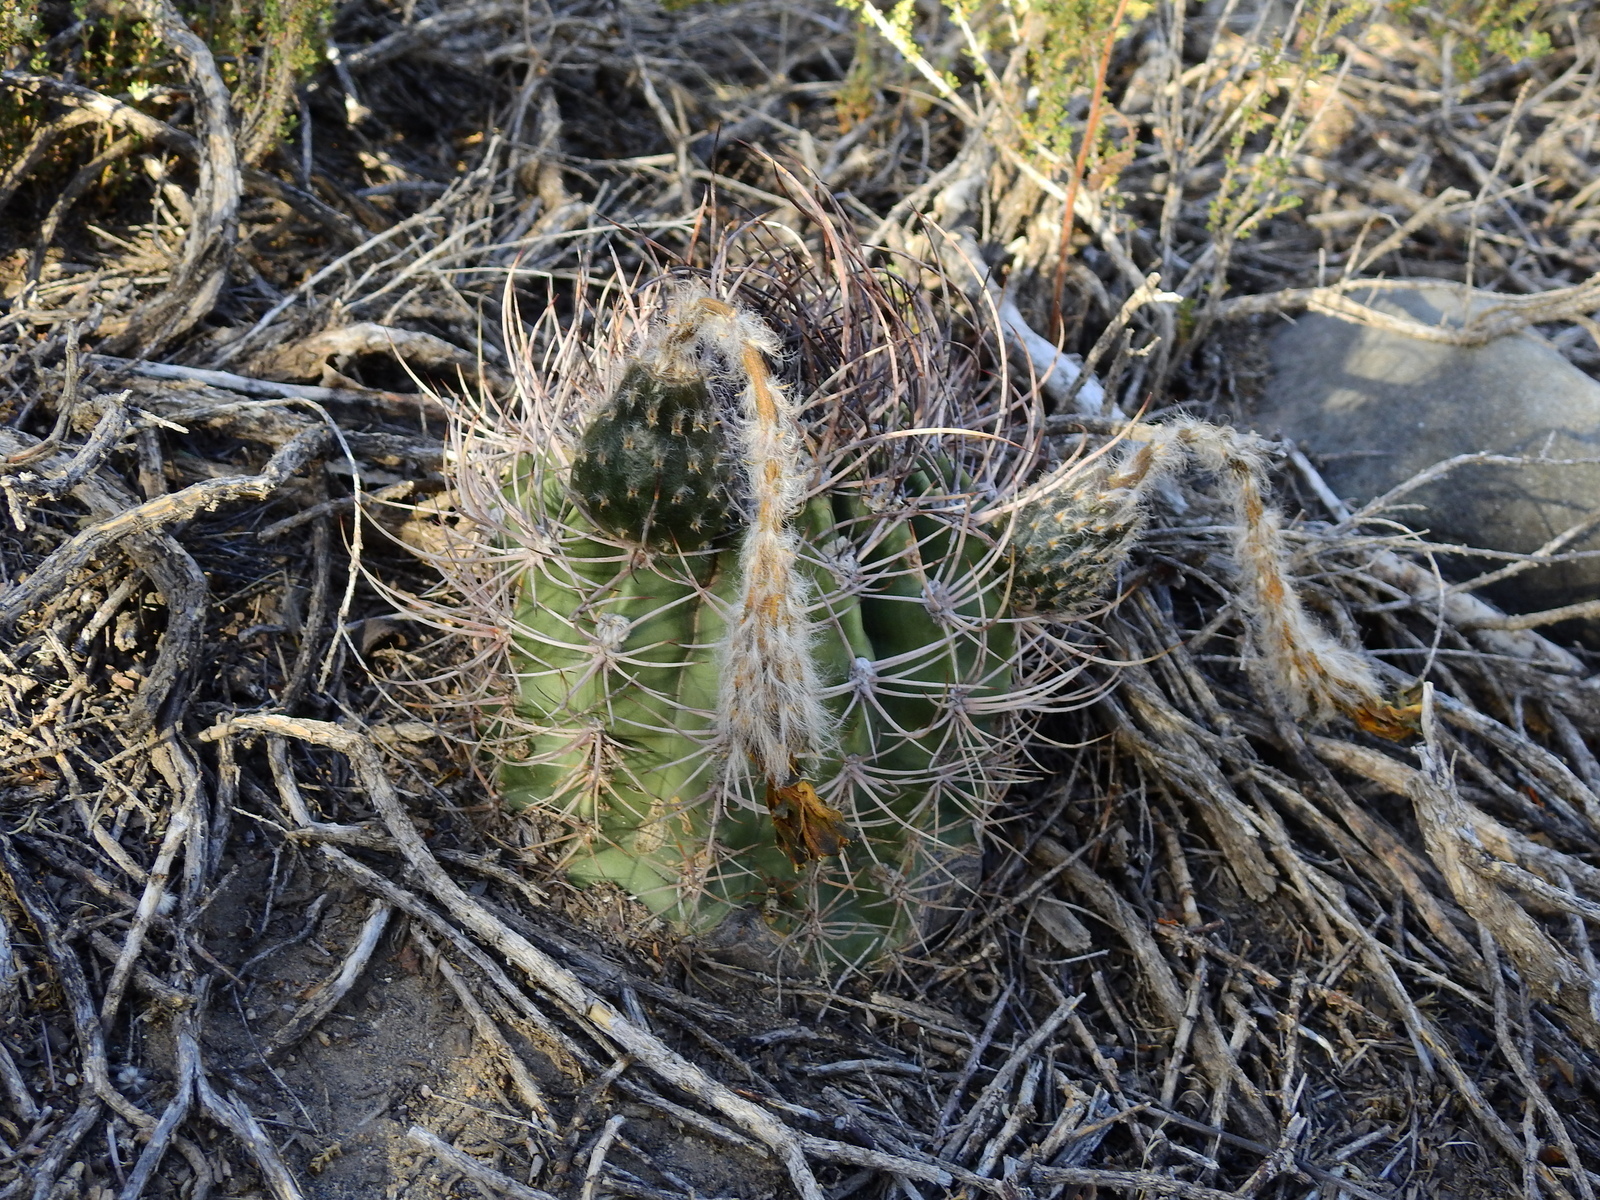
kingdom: Plantae
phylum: Tracheophyta
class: Magnoliopsida
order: Caryophyllales
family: Cactaceae
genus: Acanthocalycium
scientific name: Acanthocalycium leucanthum
